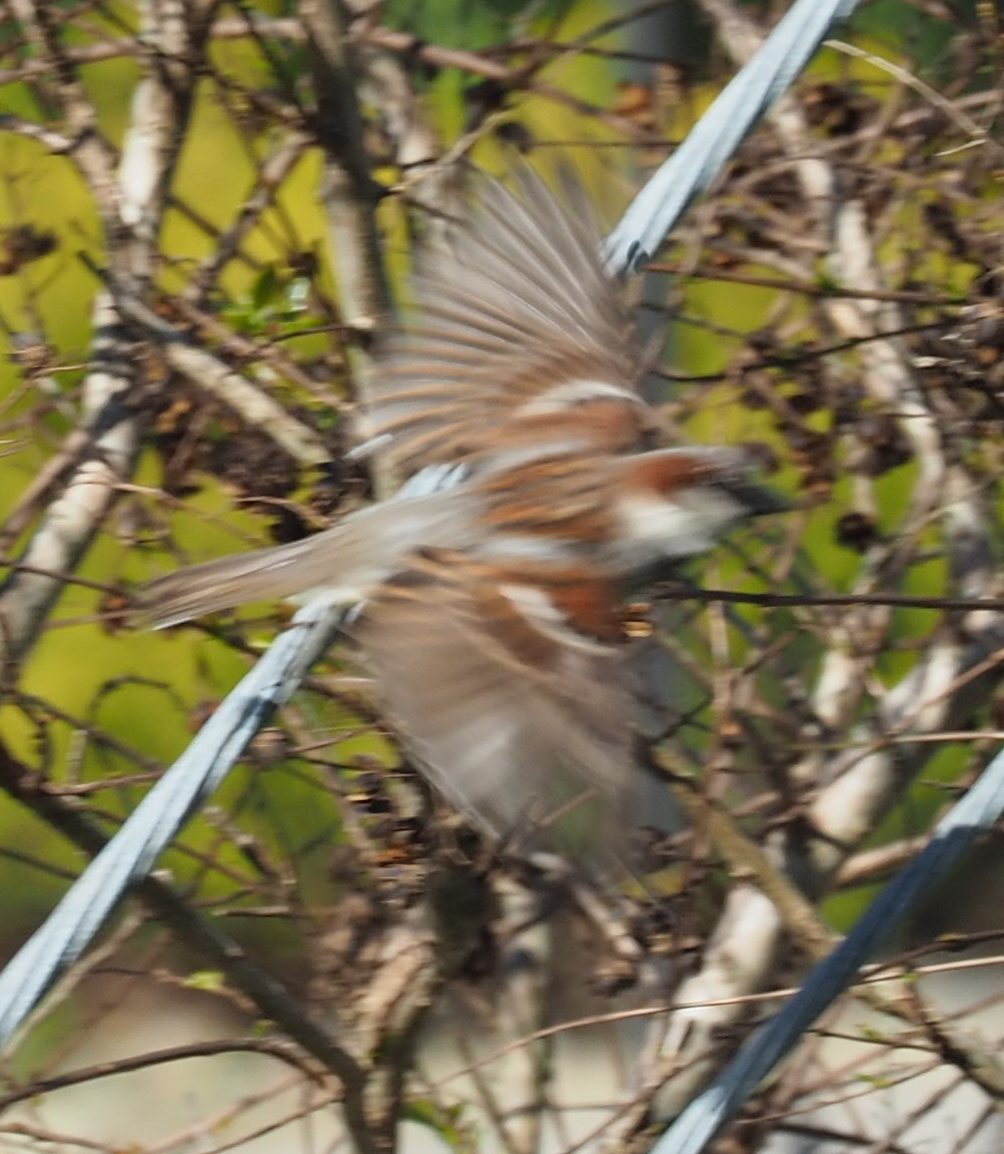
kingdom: Animalia
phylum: Chordata
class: Aves
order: Passeriformes
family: Passeridae
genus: Passer
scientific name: Passer domesticus
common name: House sparrow
